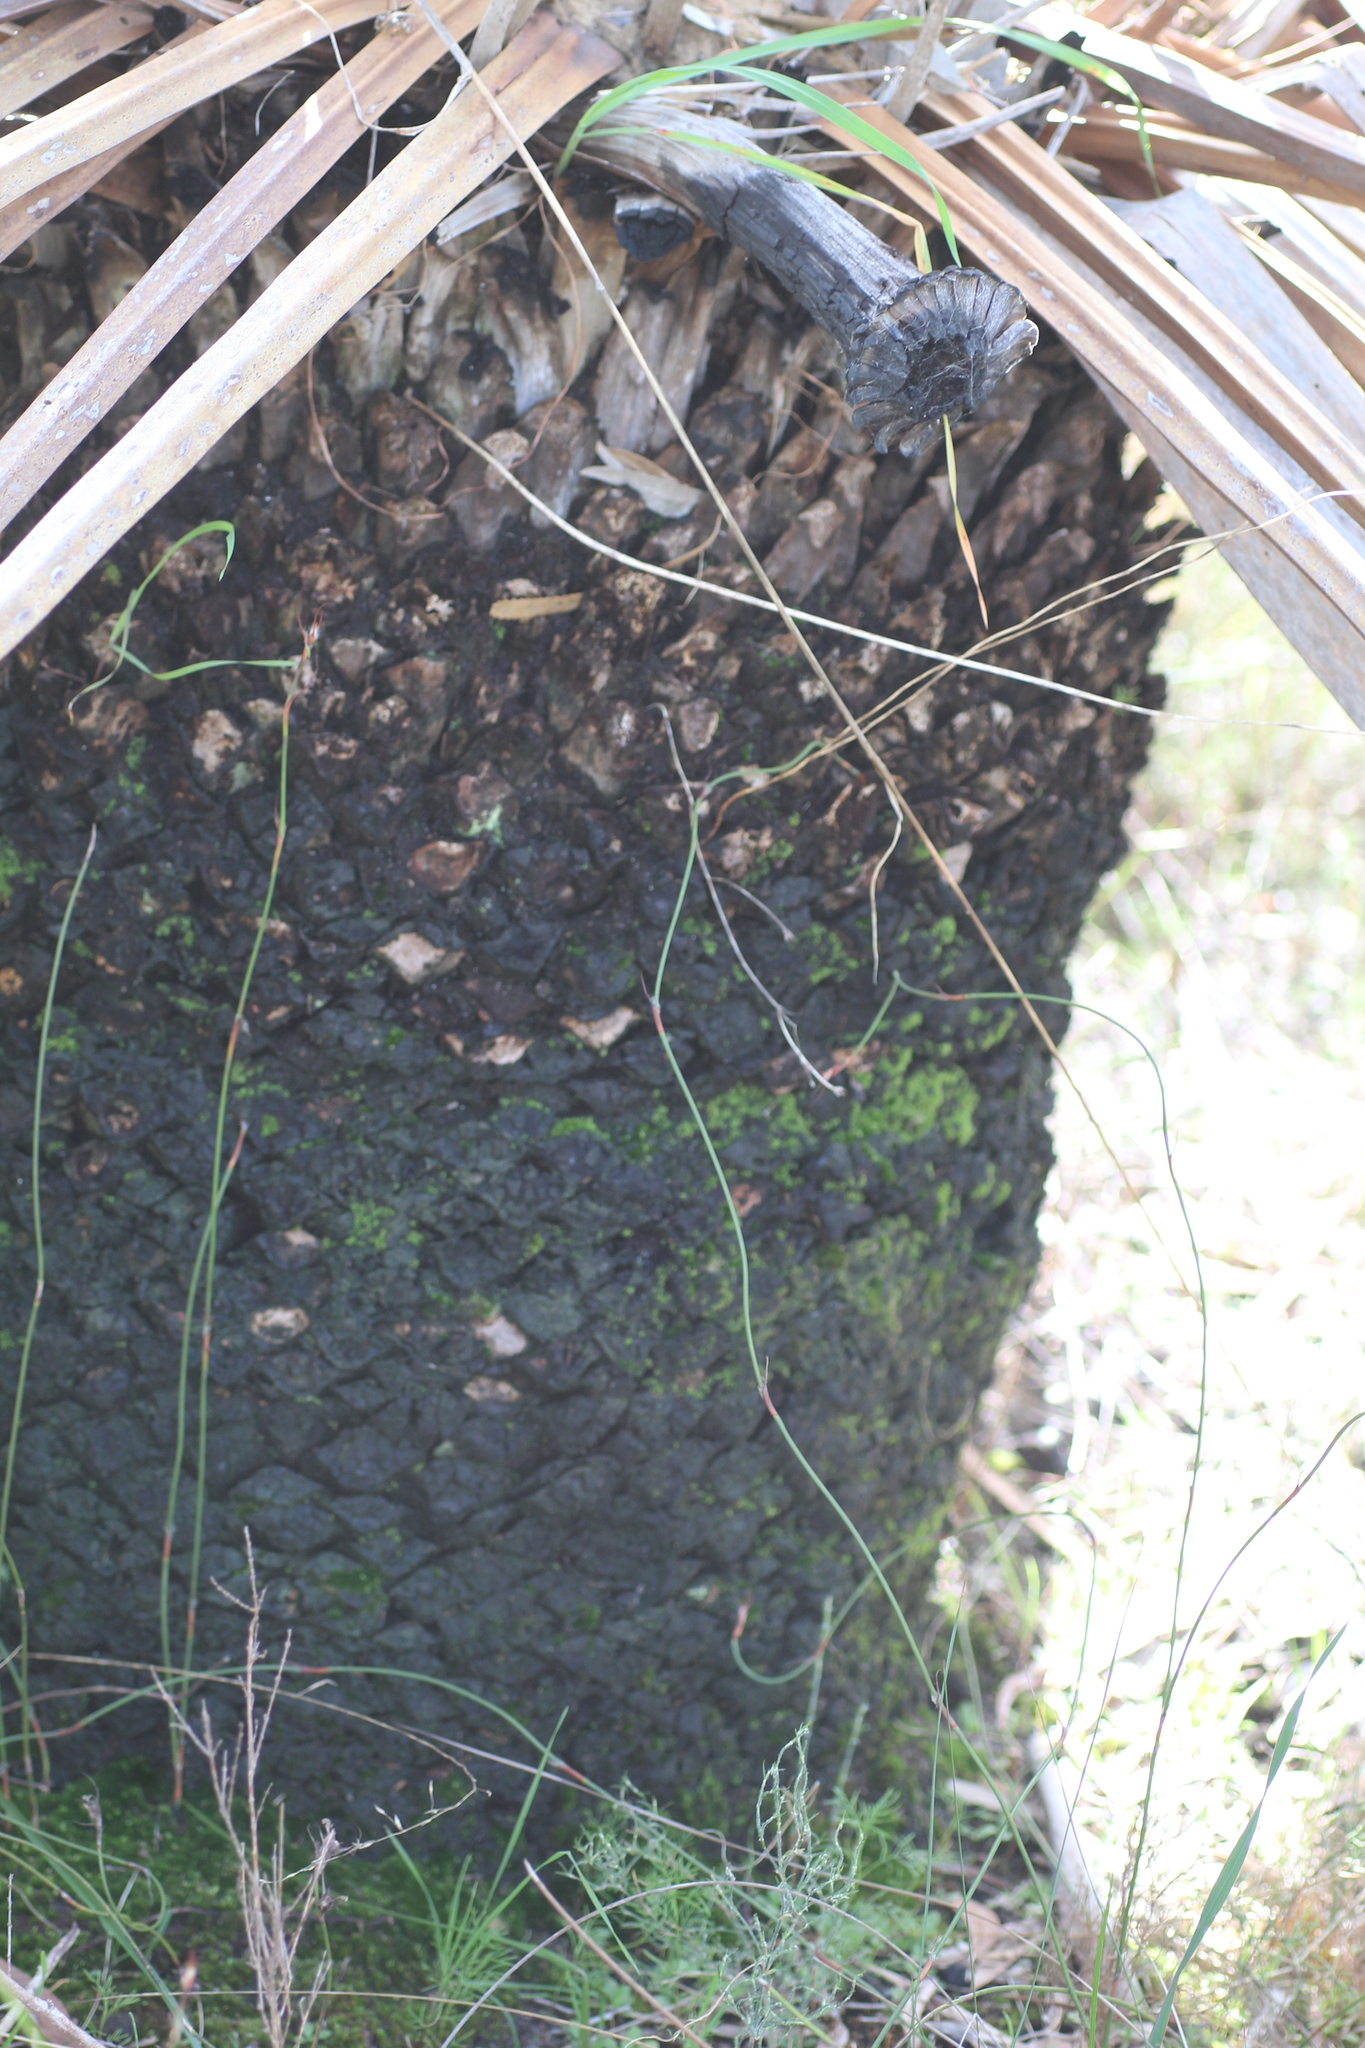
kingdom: Plantae
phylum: Bryophyta
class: Bryopsida
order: Pottiales
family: Pottiaceae
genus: Calymperastrum
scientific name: Calymperastrum latifolium
